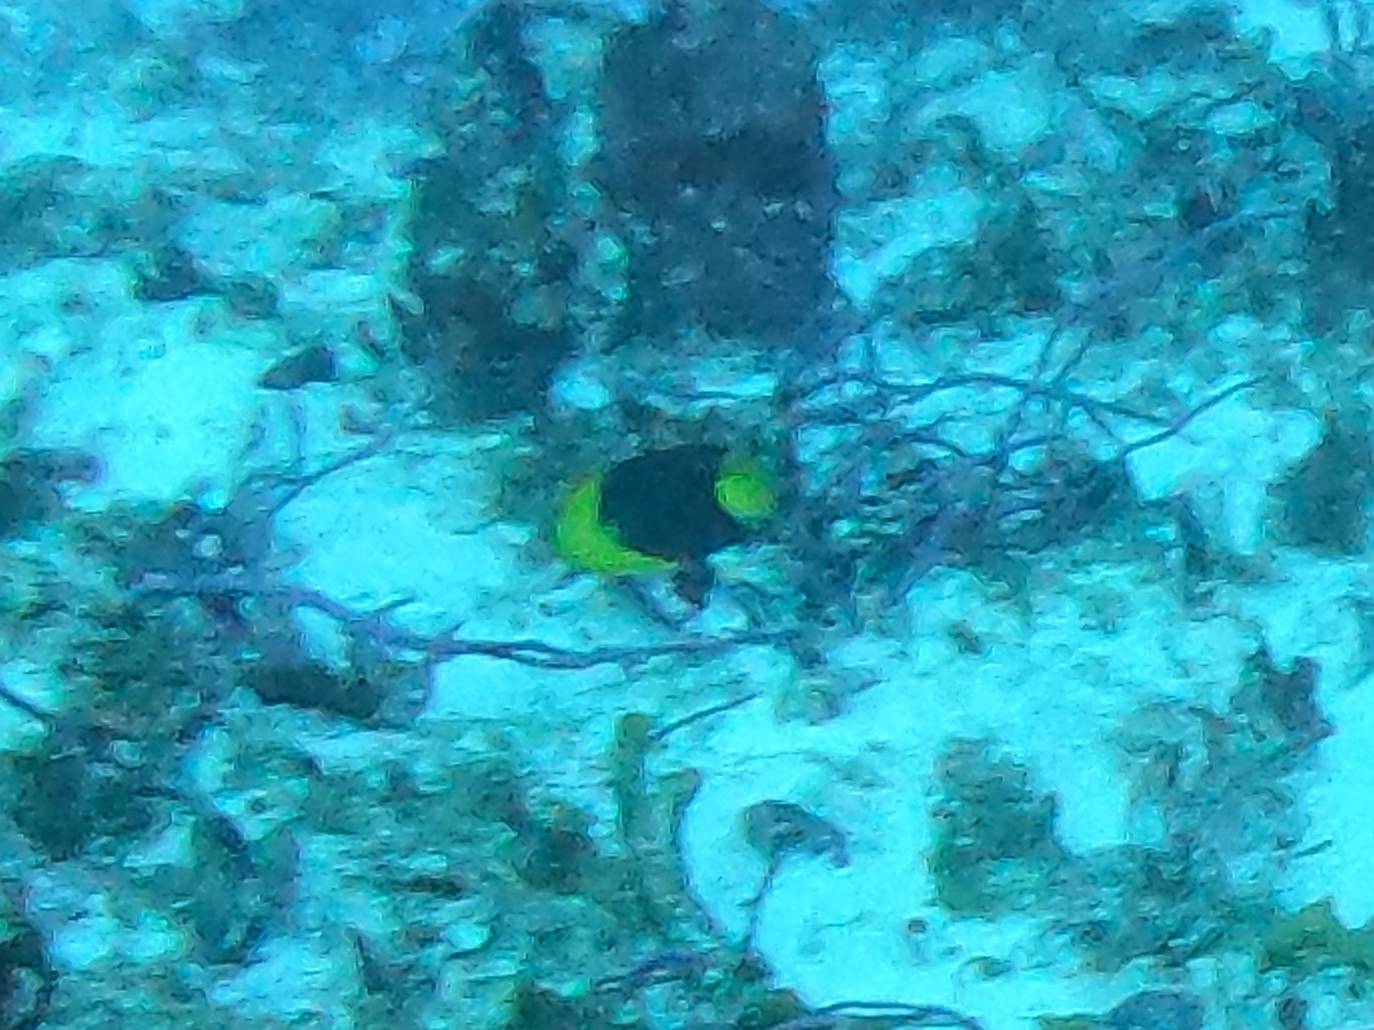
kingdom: Animalia
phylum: Chordata
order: Perciformes
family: Pomacanthidae
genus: Holacanthus
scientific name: Holacanthus tricolor
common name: Rock beauty
